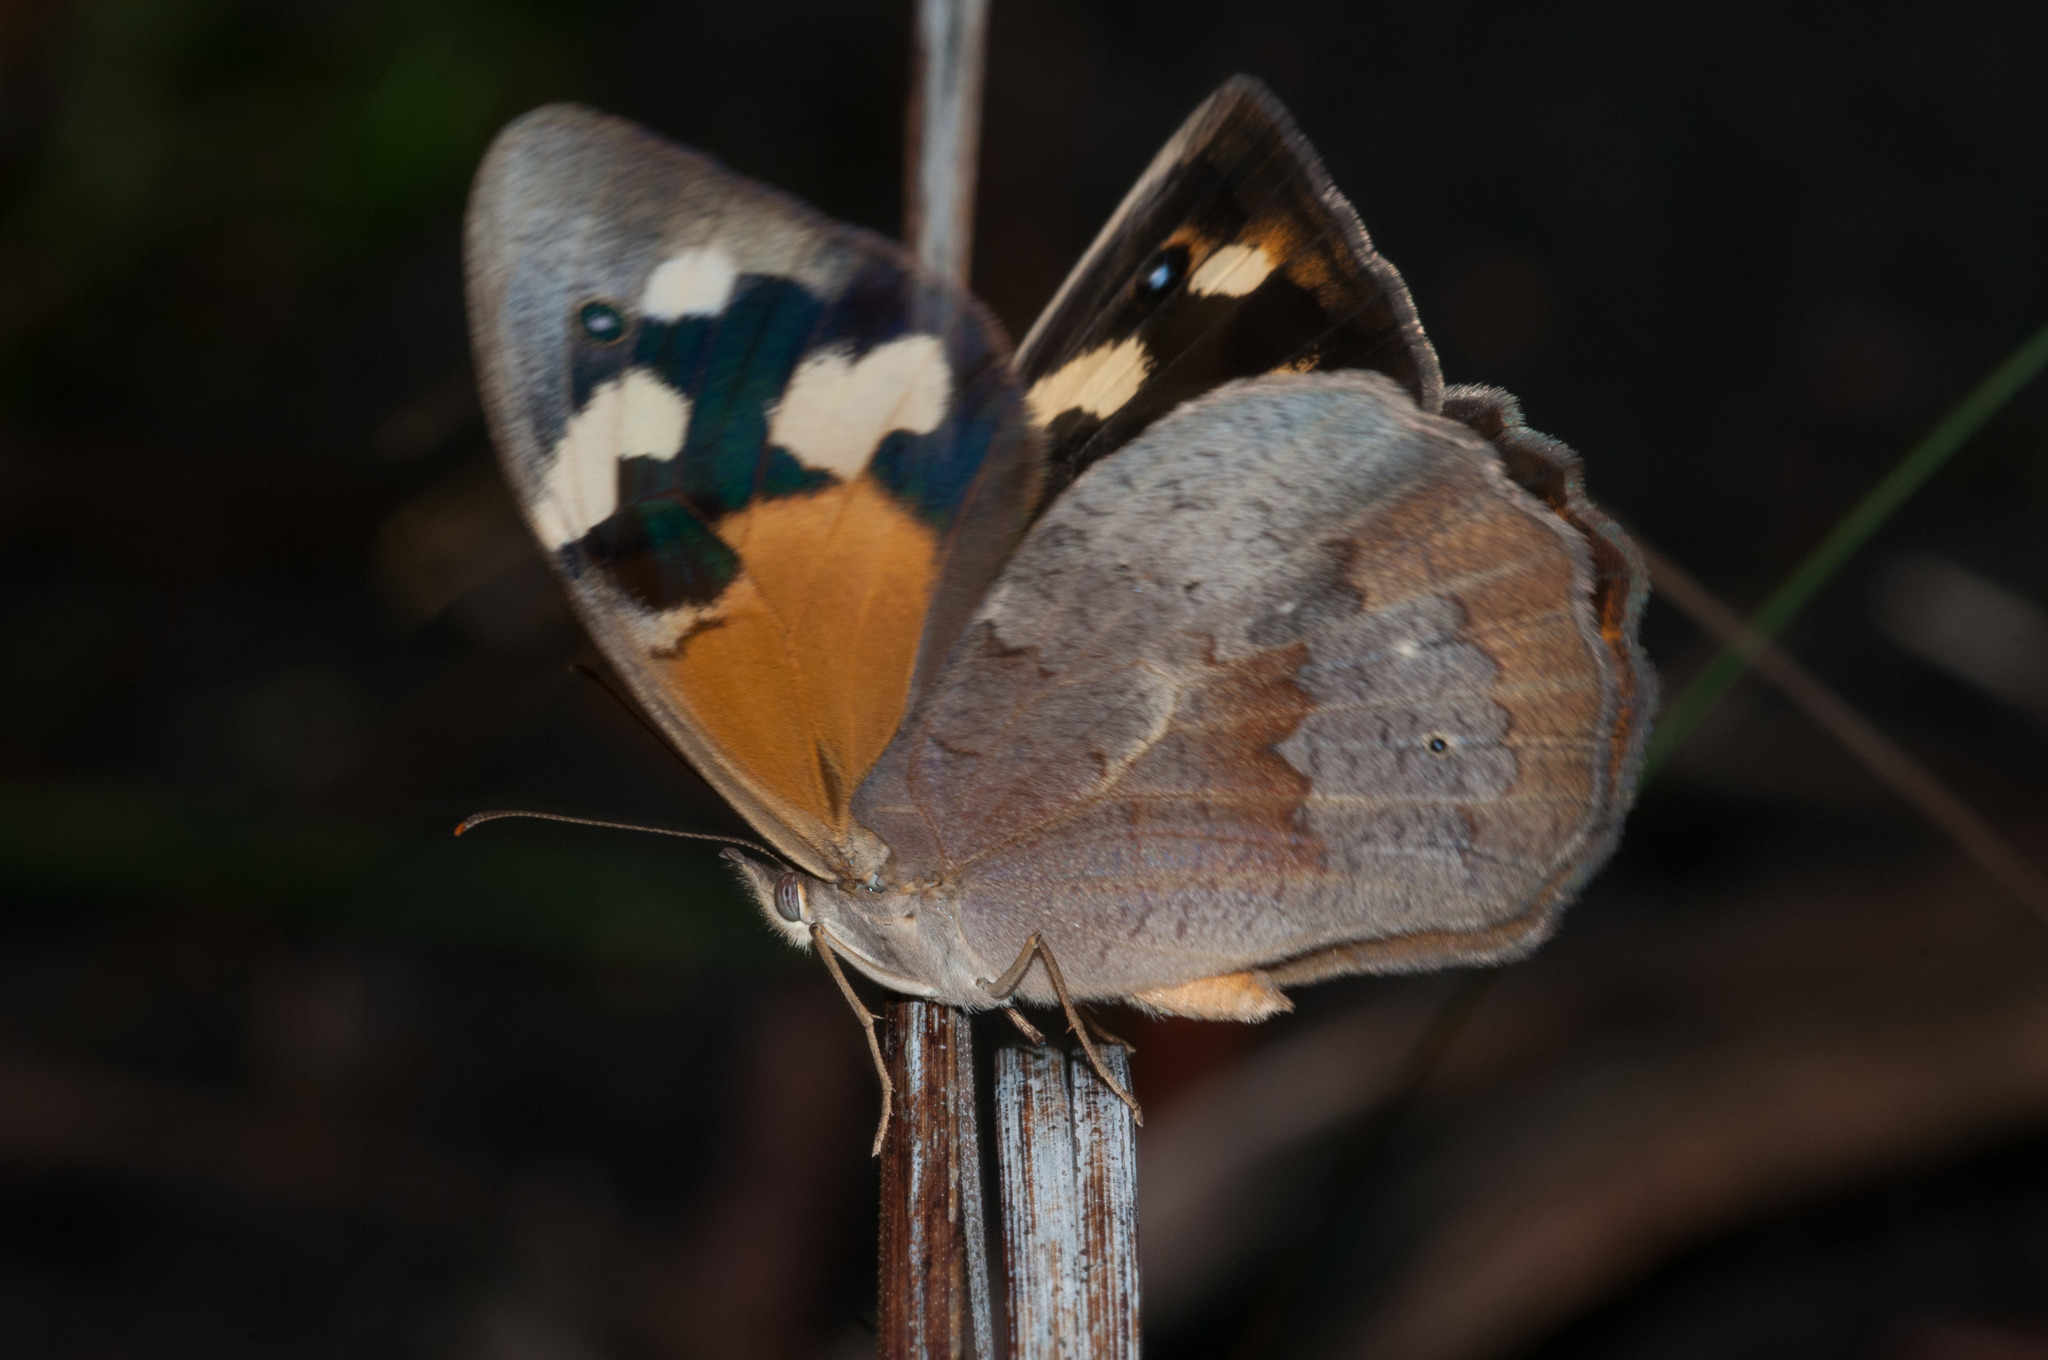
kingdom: Animalia
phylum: Arthropoda
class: Insecta
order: Lepidoptera
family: Nymphalidae
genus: Heteronympha
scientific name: Heteronympha merope
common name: Common brown
